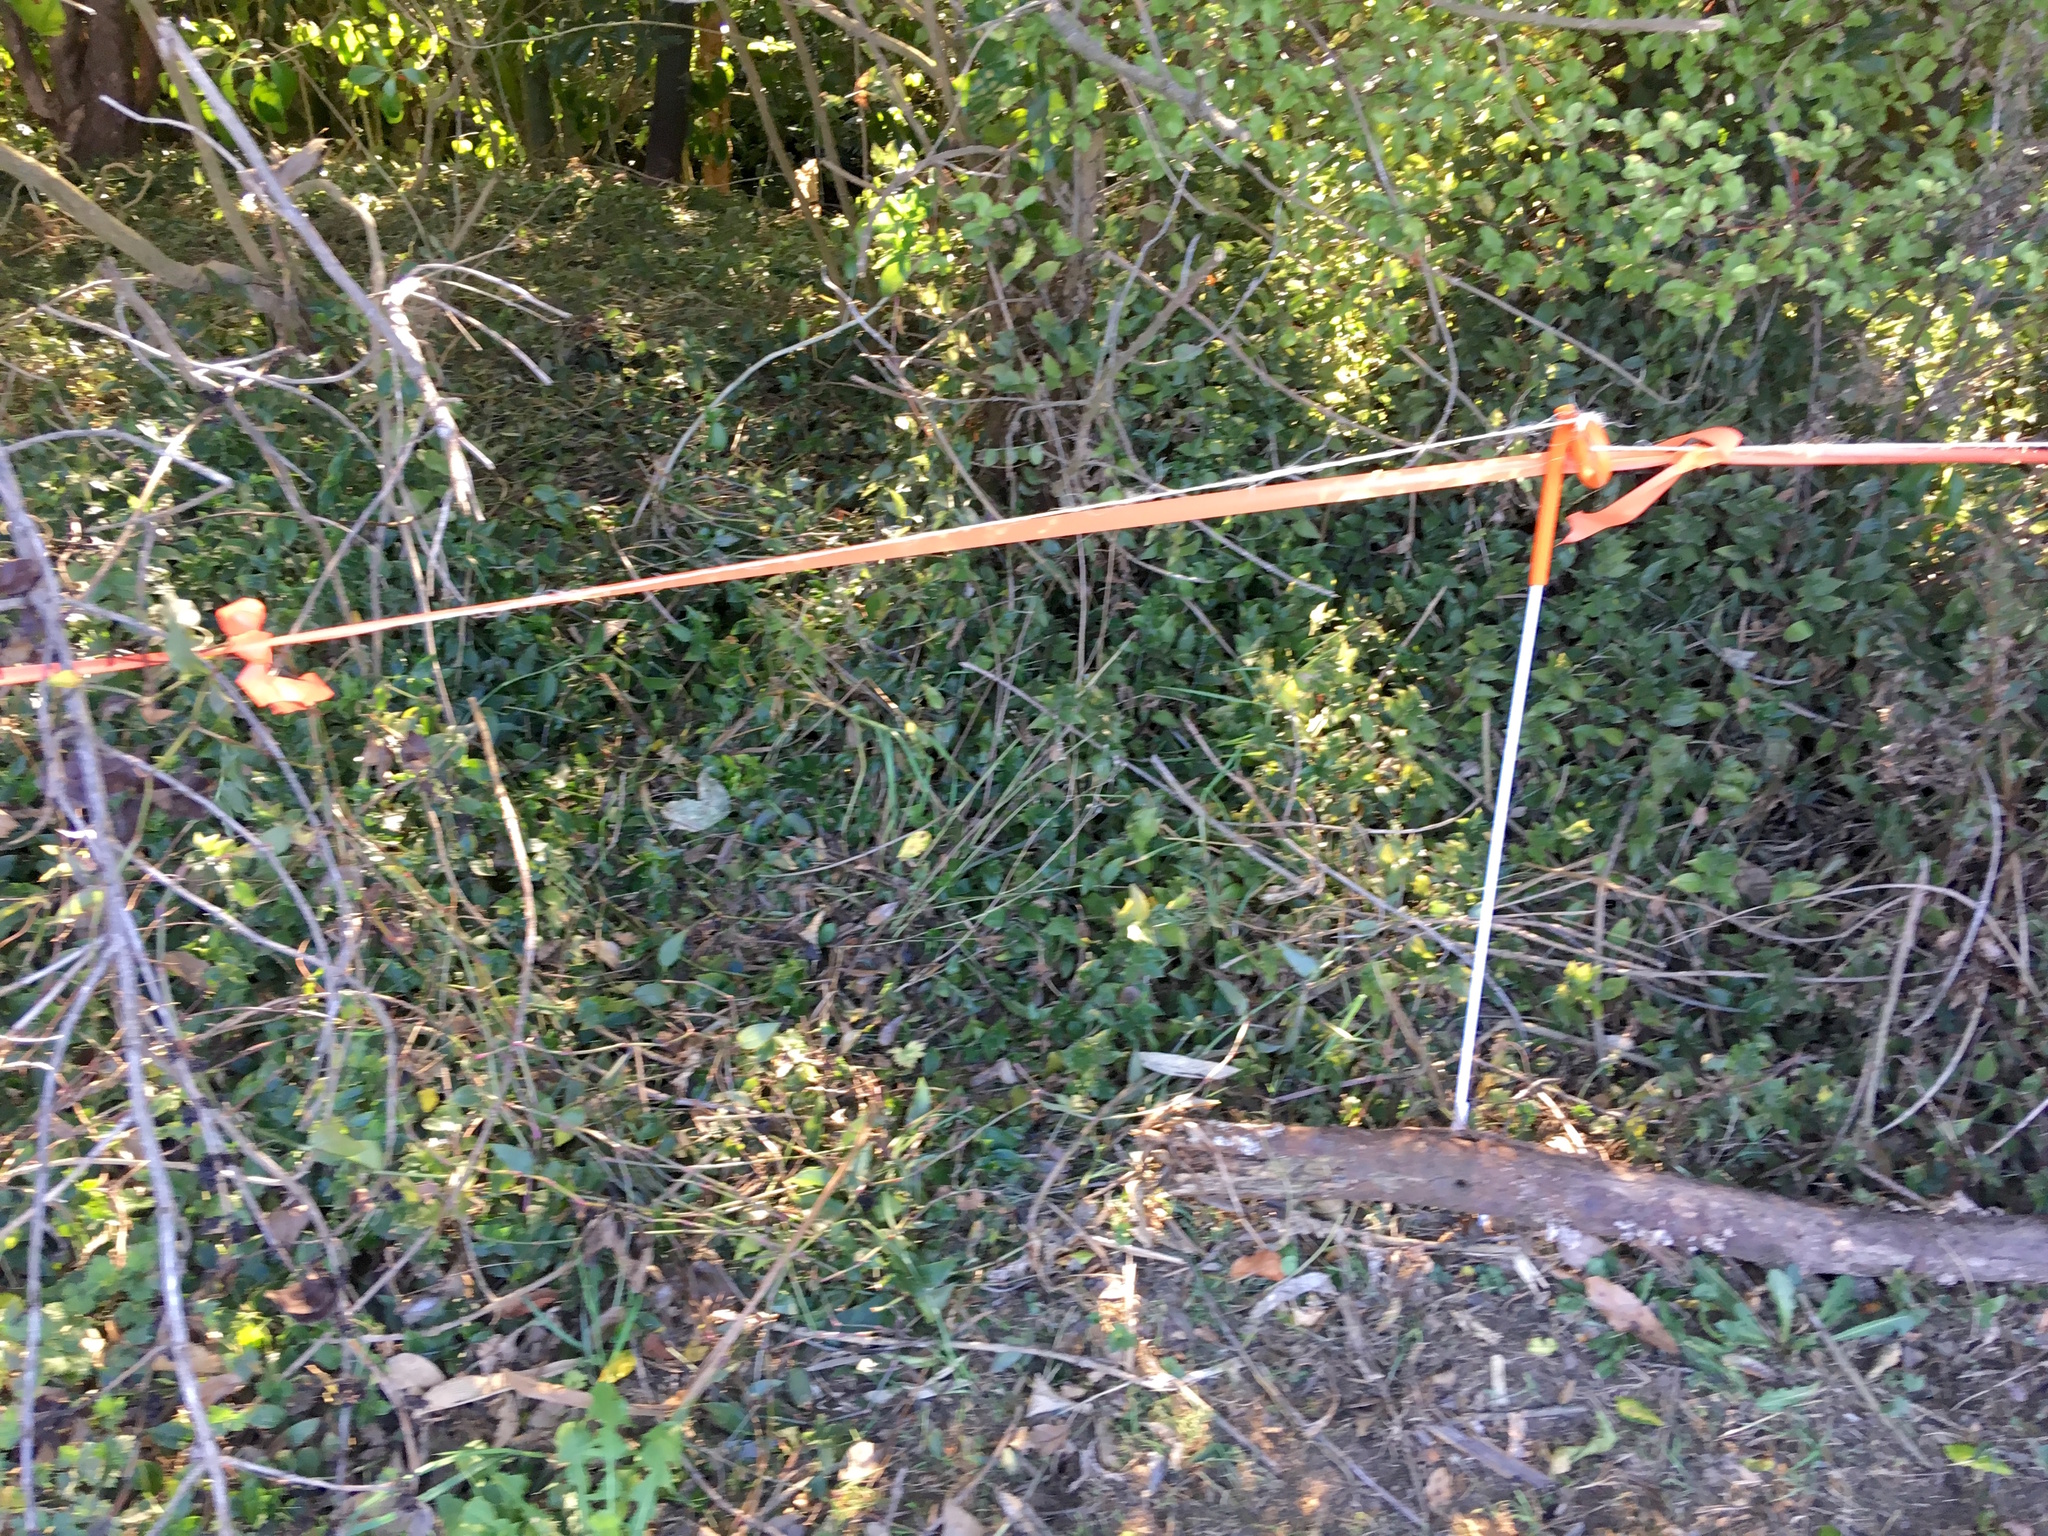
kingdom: Plantae
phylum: Tracheophyta
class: Liliopsida
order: Commelinales
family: Commelinaceae
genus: Tradescantia
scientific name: Tradescantia fluminensis
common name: Wandering-jew
